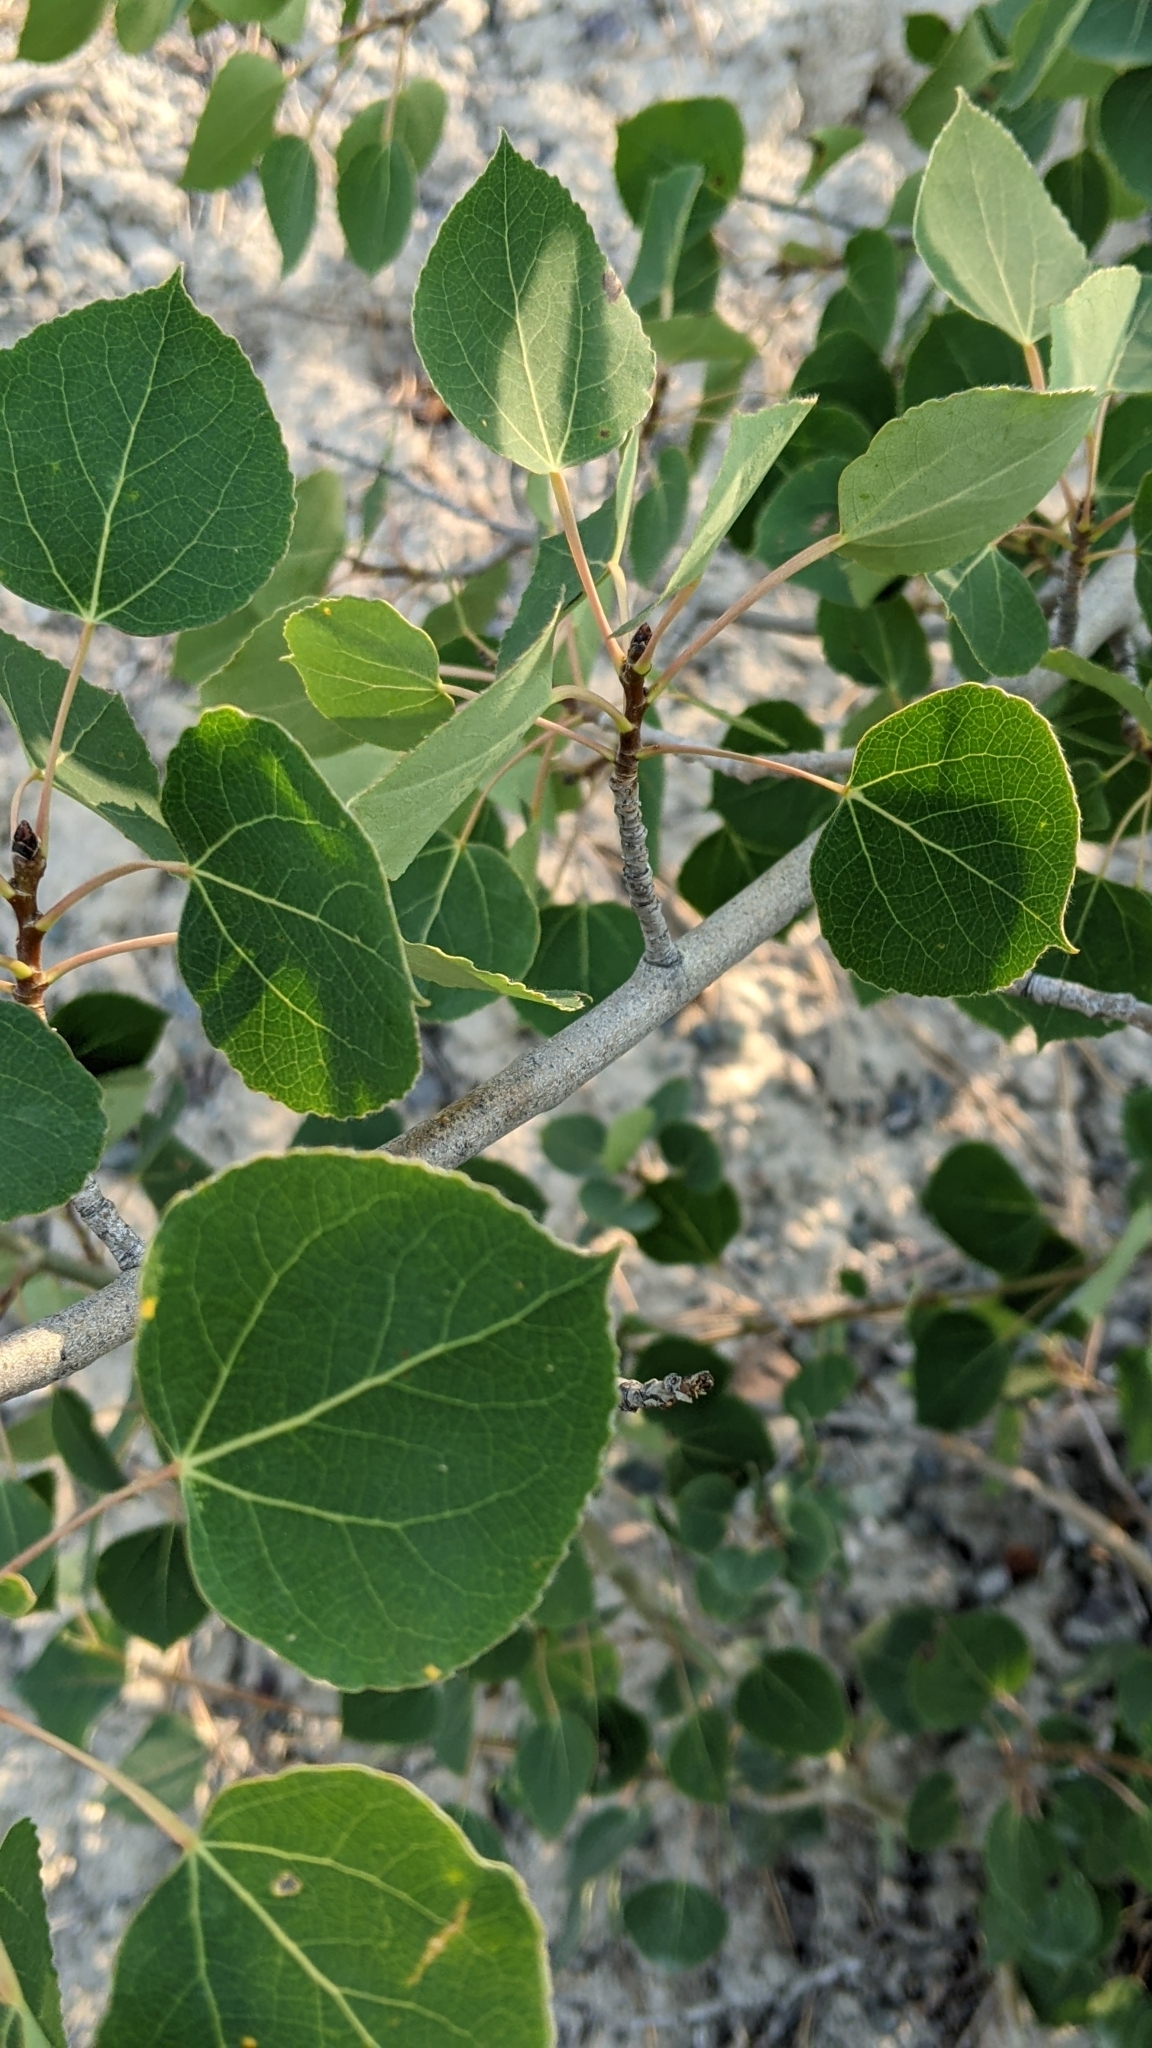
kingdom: Plantae
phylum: Tracheophyta
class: Magnoliopsida
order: Malpighiales
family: Salicaceae
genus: Populus
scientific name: Populus tremuloides
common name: Quaking aspen
